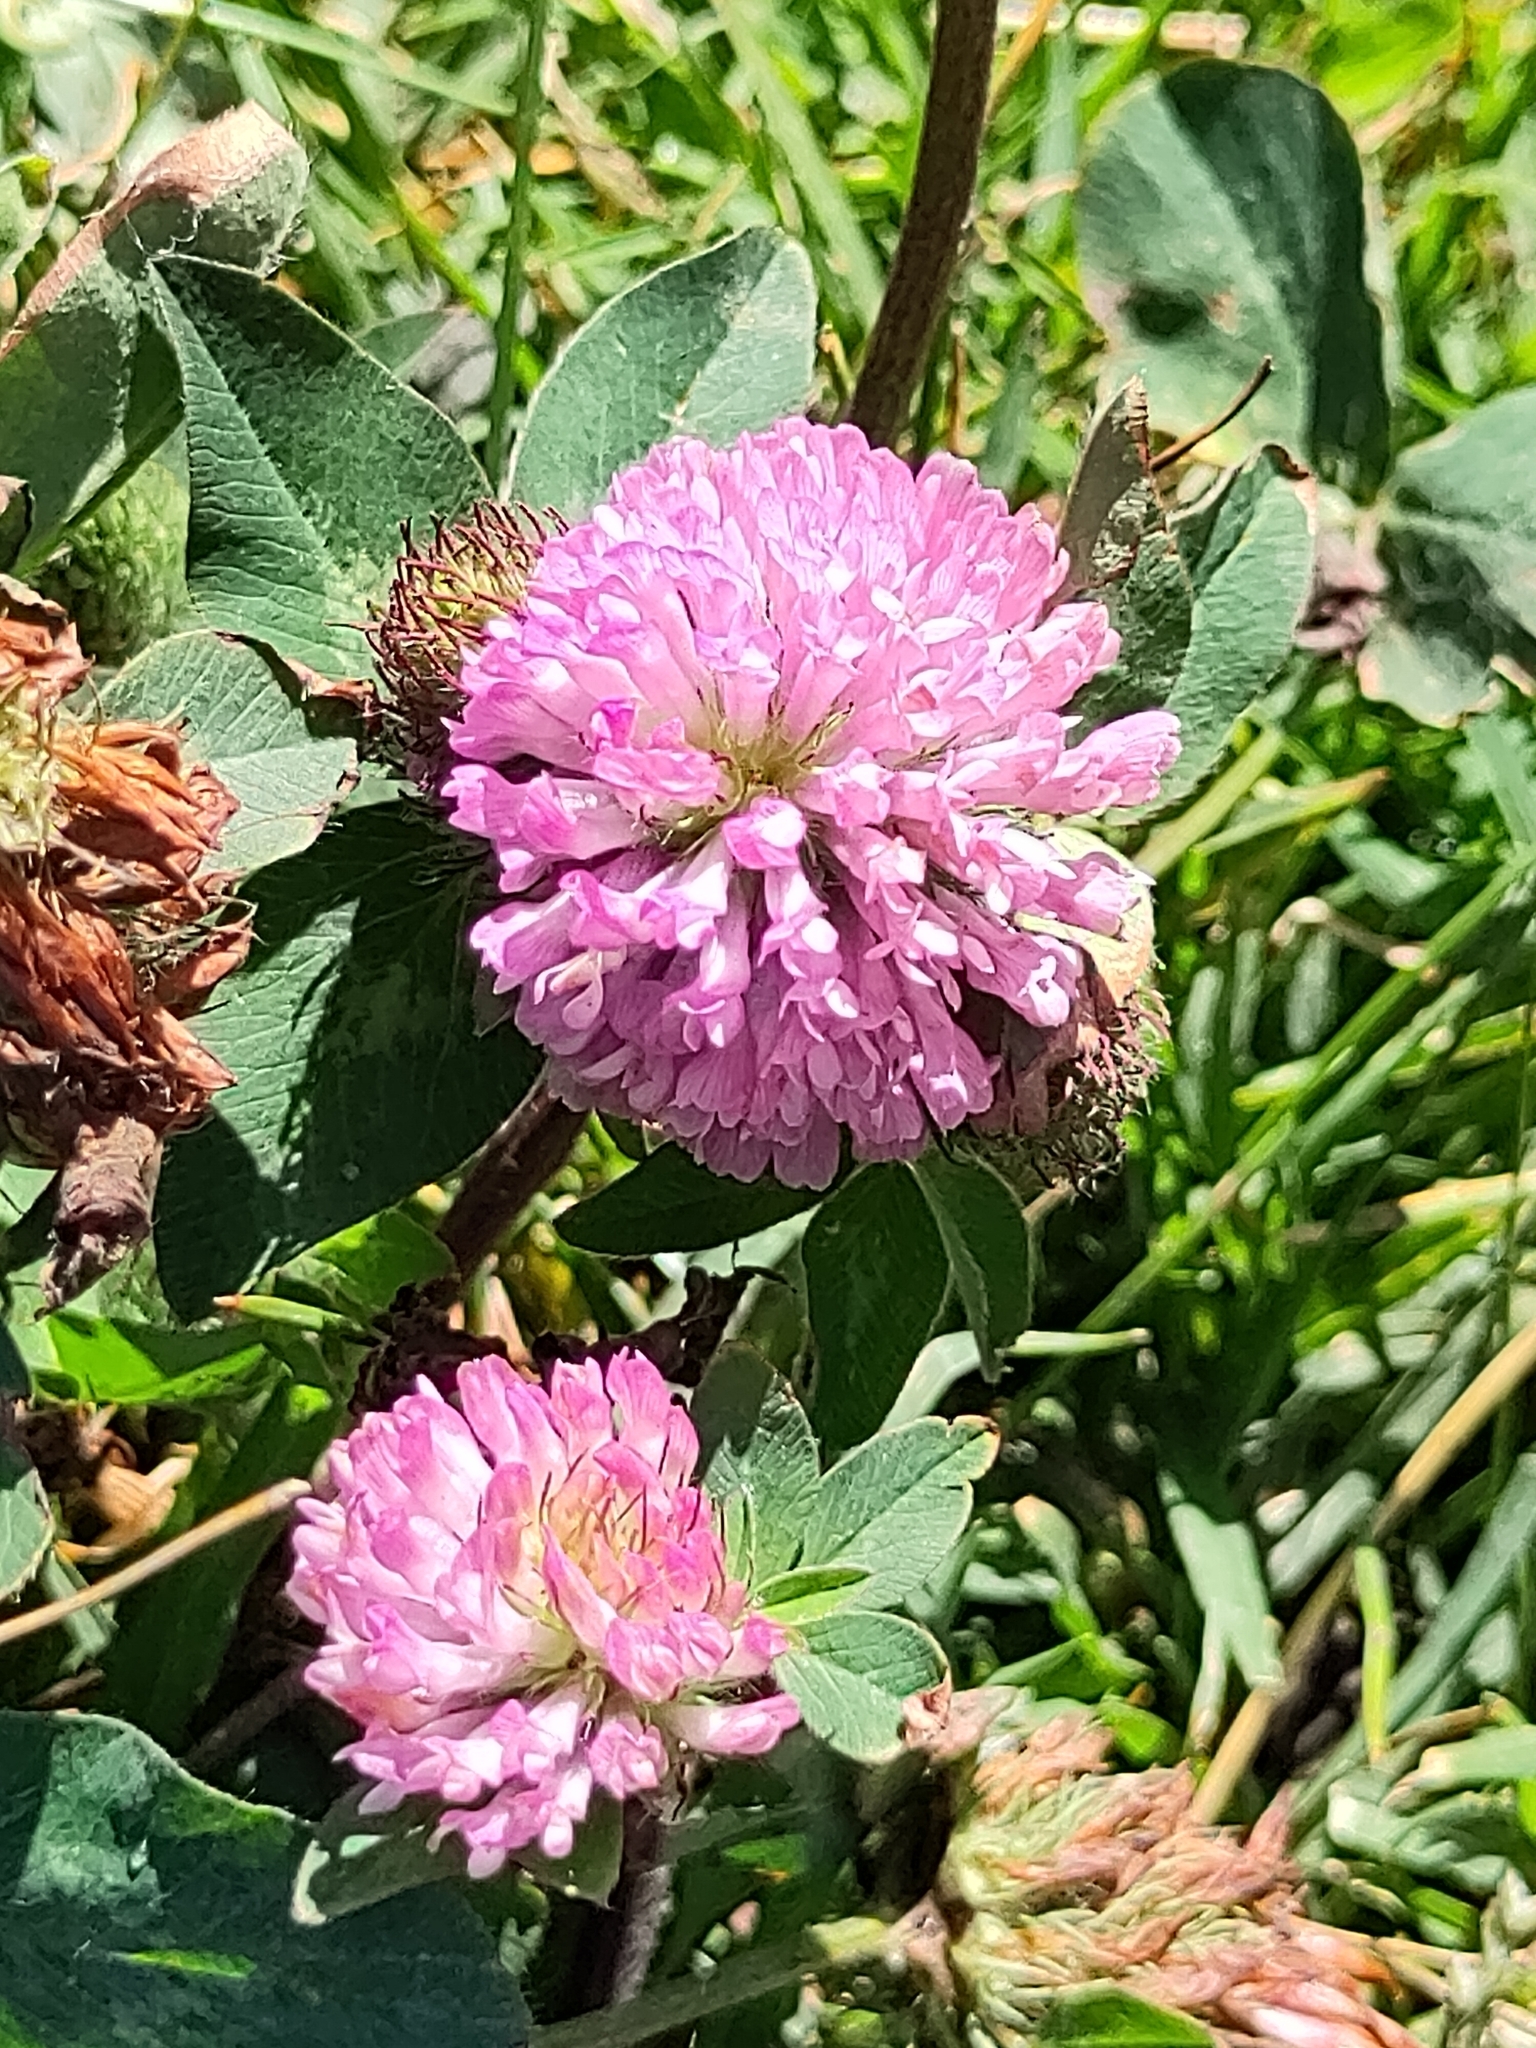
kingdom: Plantae
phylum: Tracheophyta
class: Magnoliopsida
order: Fabales
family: Fabaceae
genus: Trifolium
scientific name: Trifolium pratense
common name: Red clover
